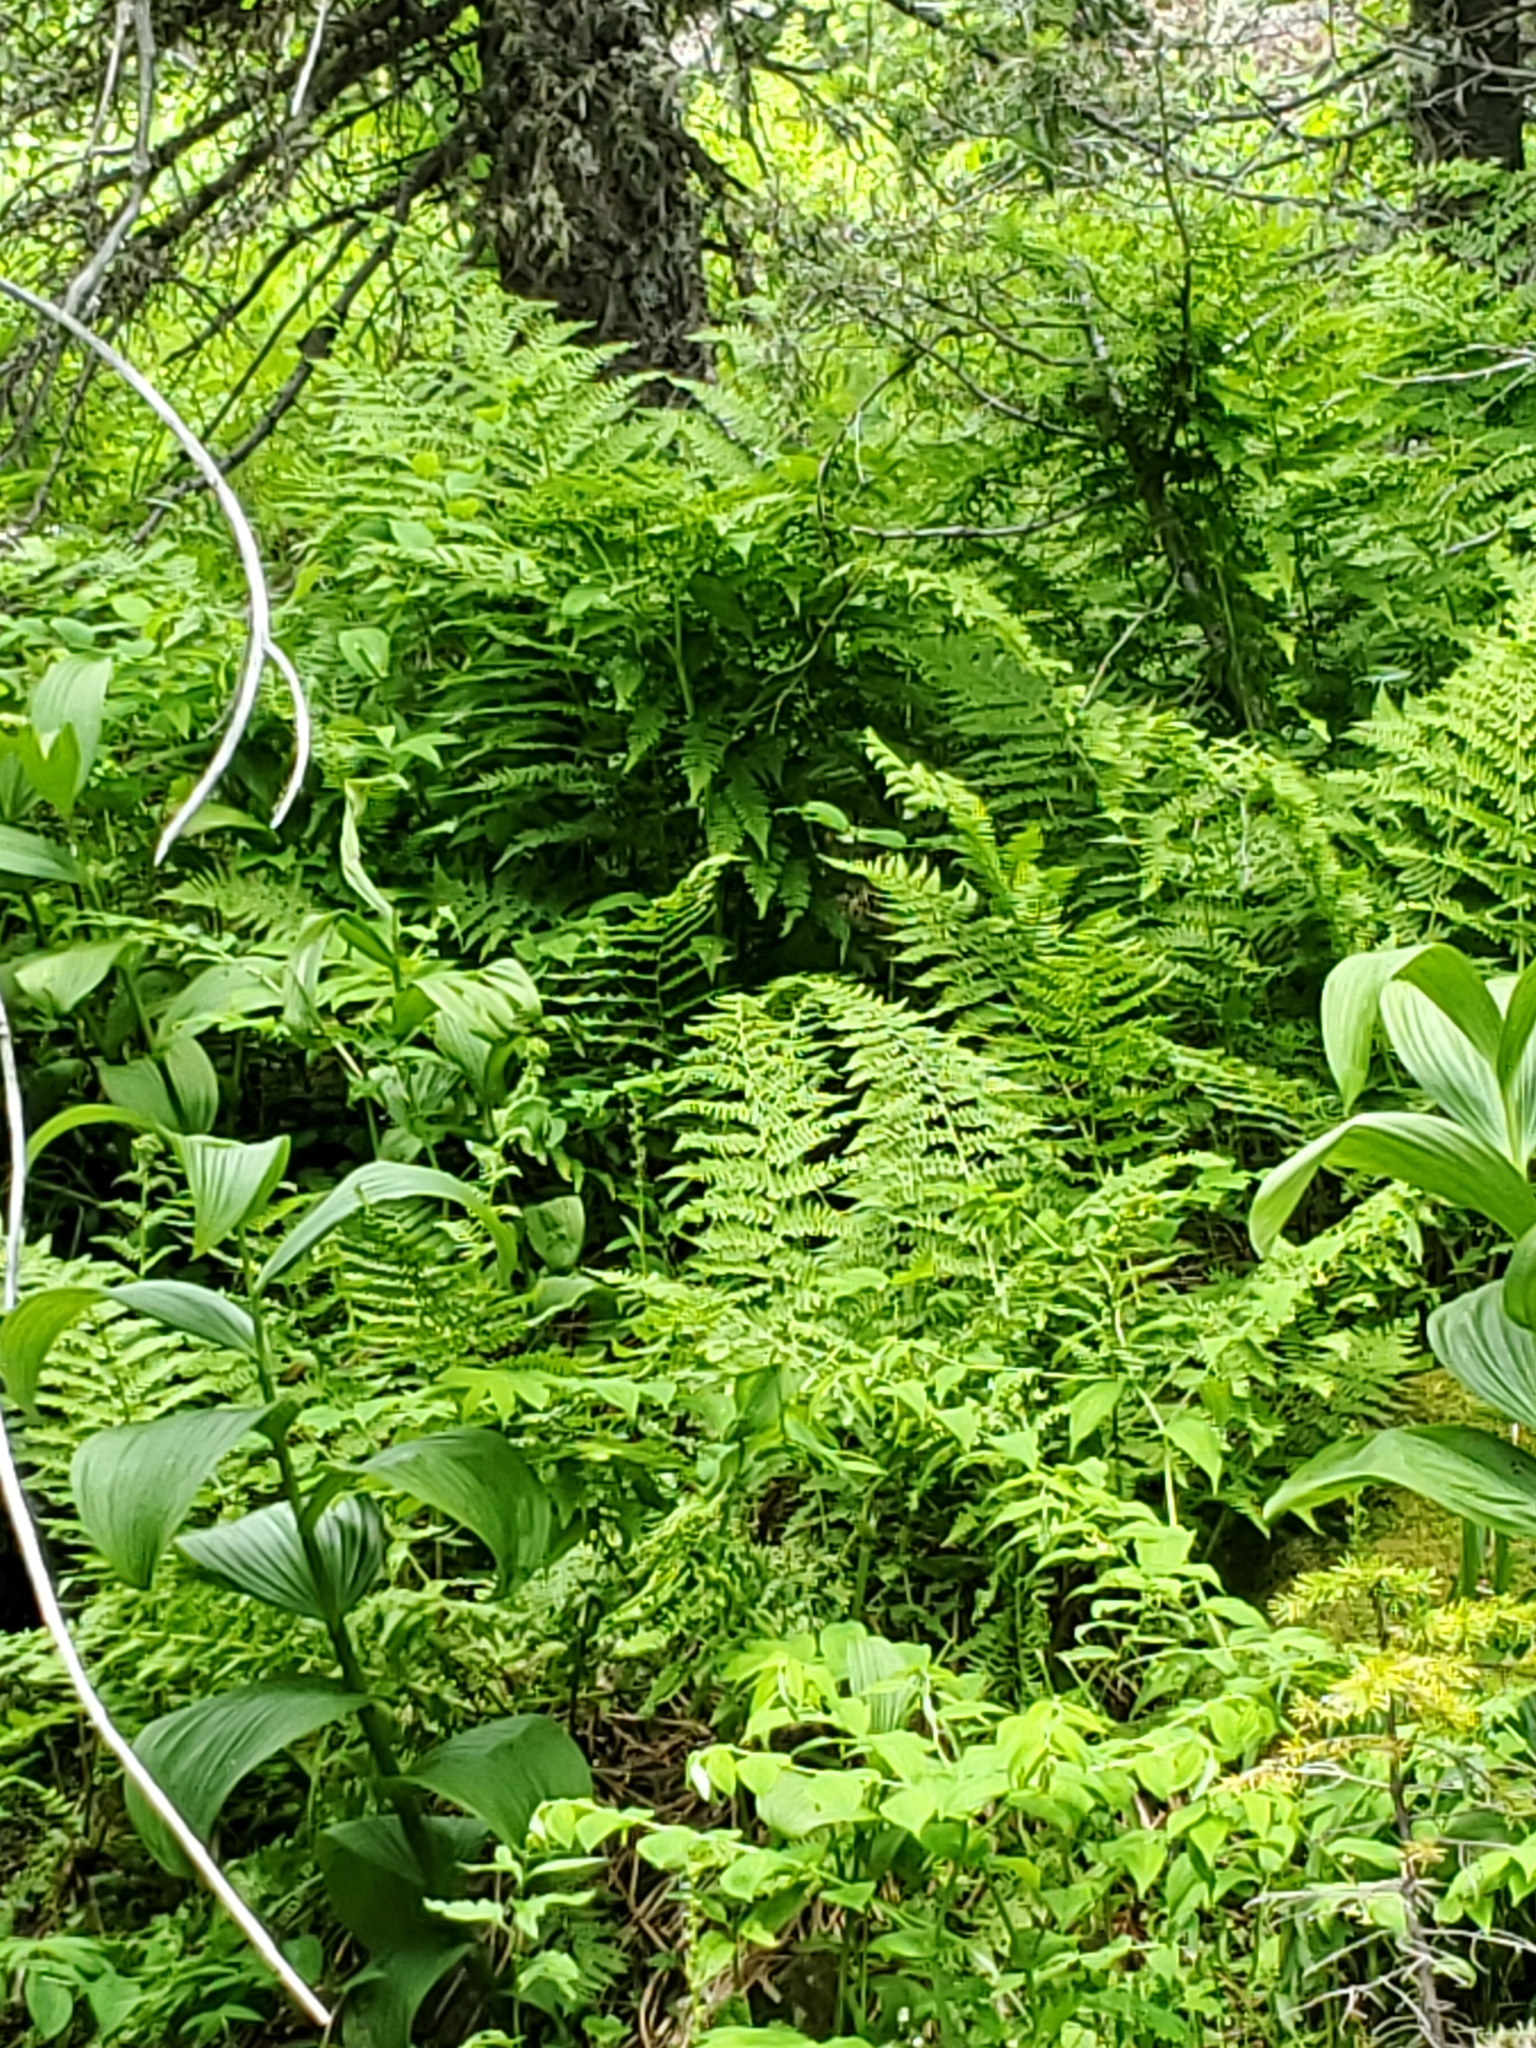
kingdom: Plantae
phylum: Tracheophyta
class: Polypodiopsida
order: Polypodiales
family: Athyriaceae
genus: Athyrium
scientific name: Athyrium filix-femina
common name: Lady fern
